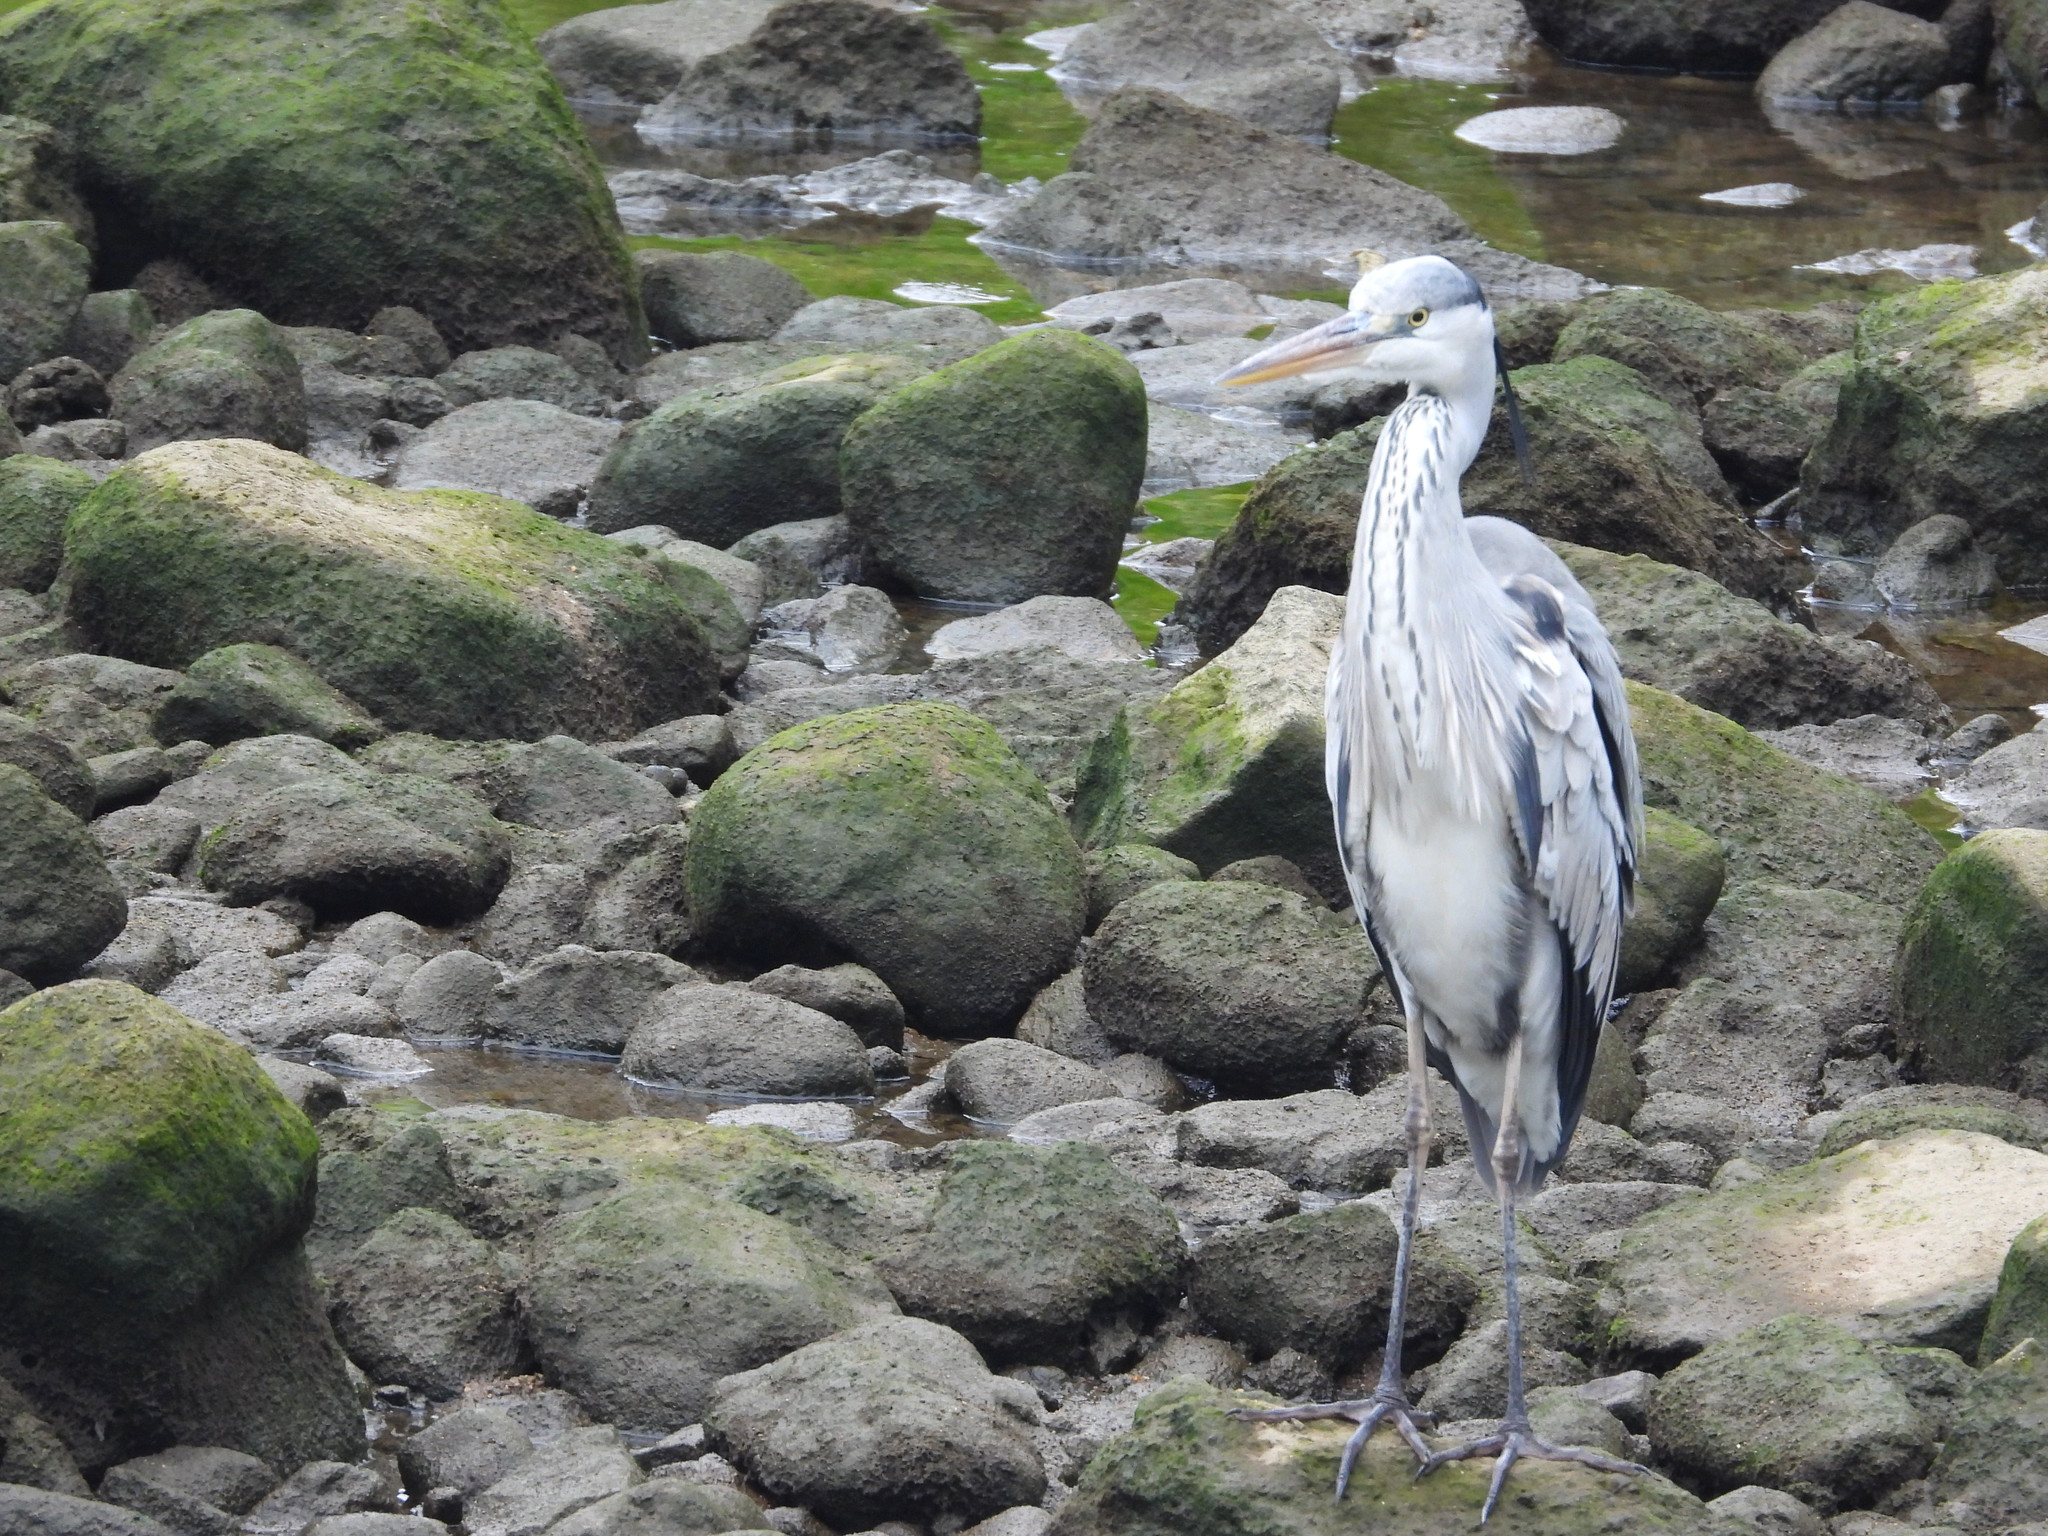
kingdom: Animalia
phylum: Chordata
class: Aves
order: Pelecaniformes
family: Ardeidae
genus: Ardea
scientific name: Ardea cinerea
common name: Grey heron
